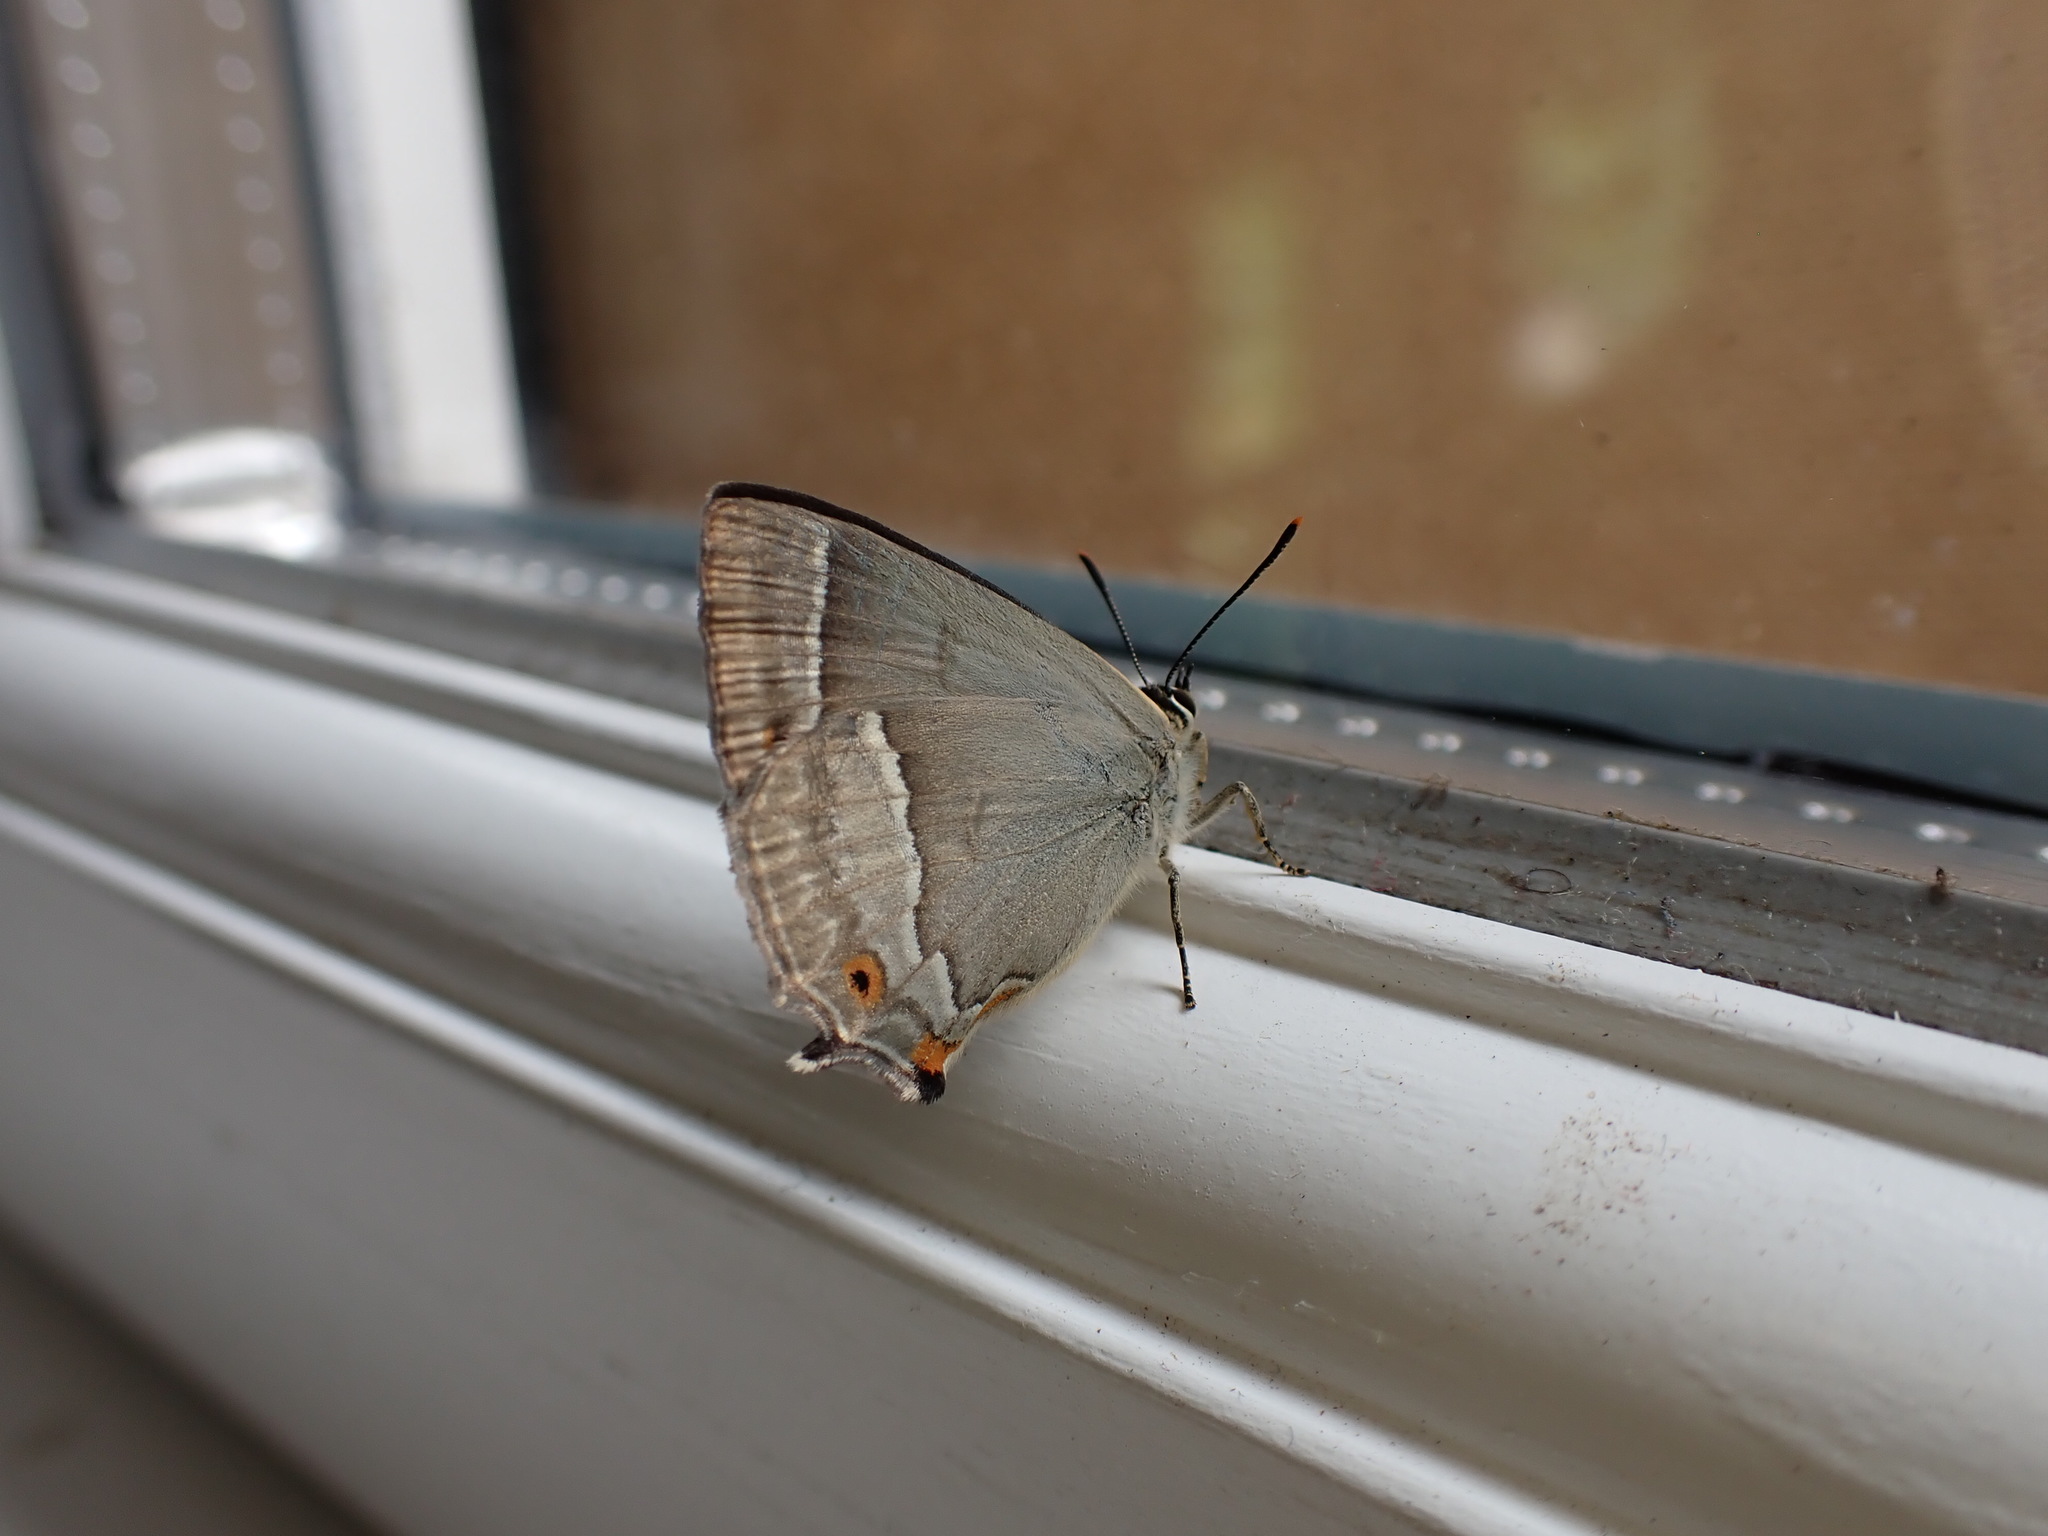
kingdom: Animalia
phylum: Arthropoda
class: Insecta
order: Lepidoptera
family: Lycaenidae
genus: Quercusia
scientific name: Quercusia quercus
